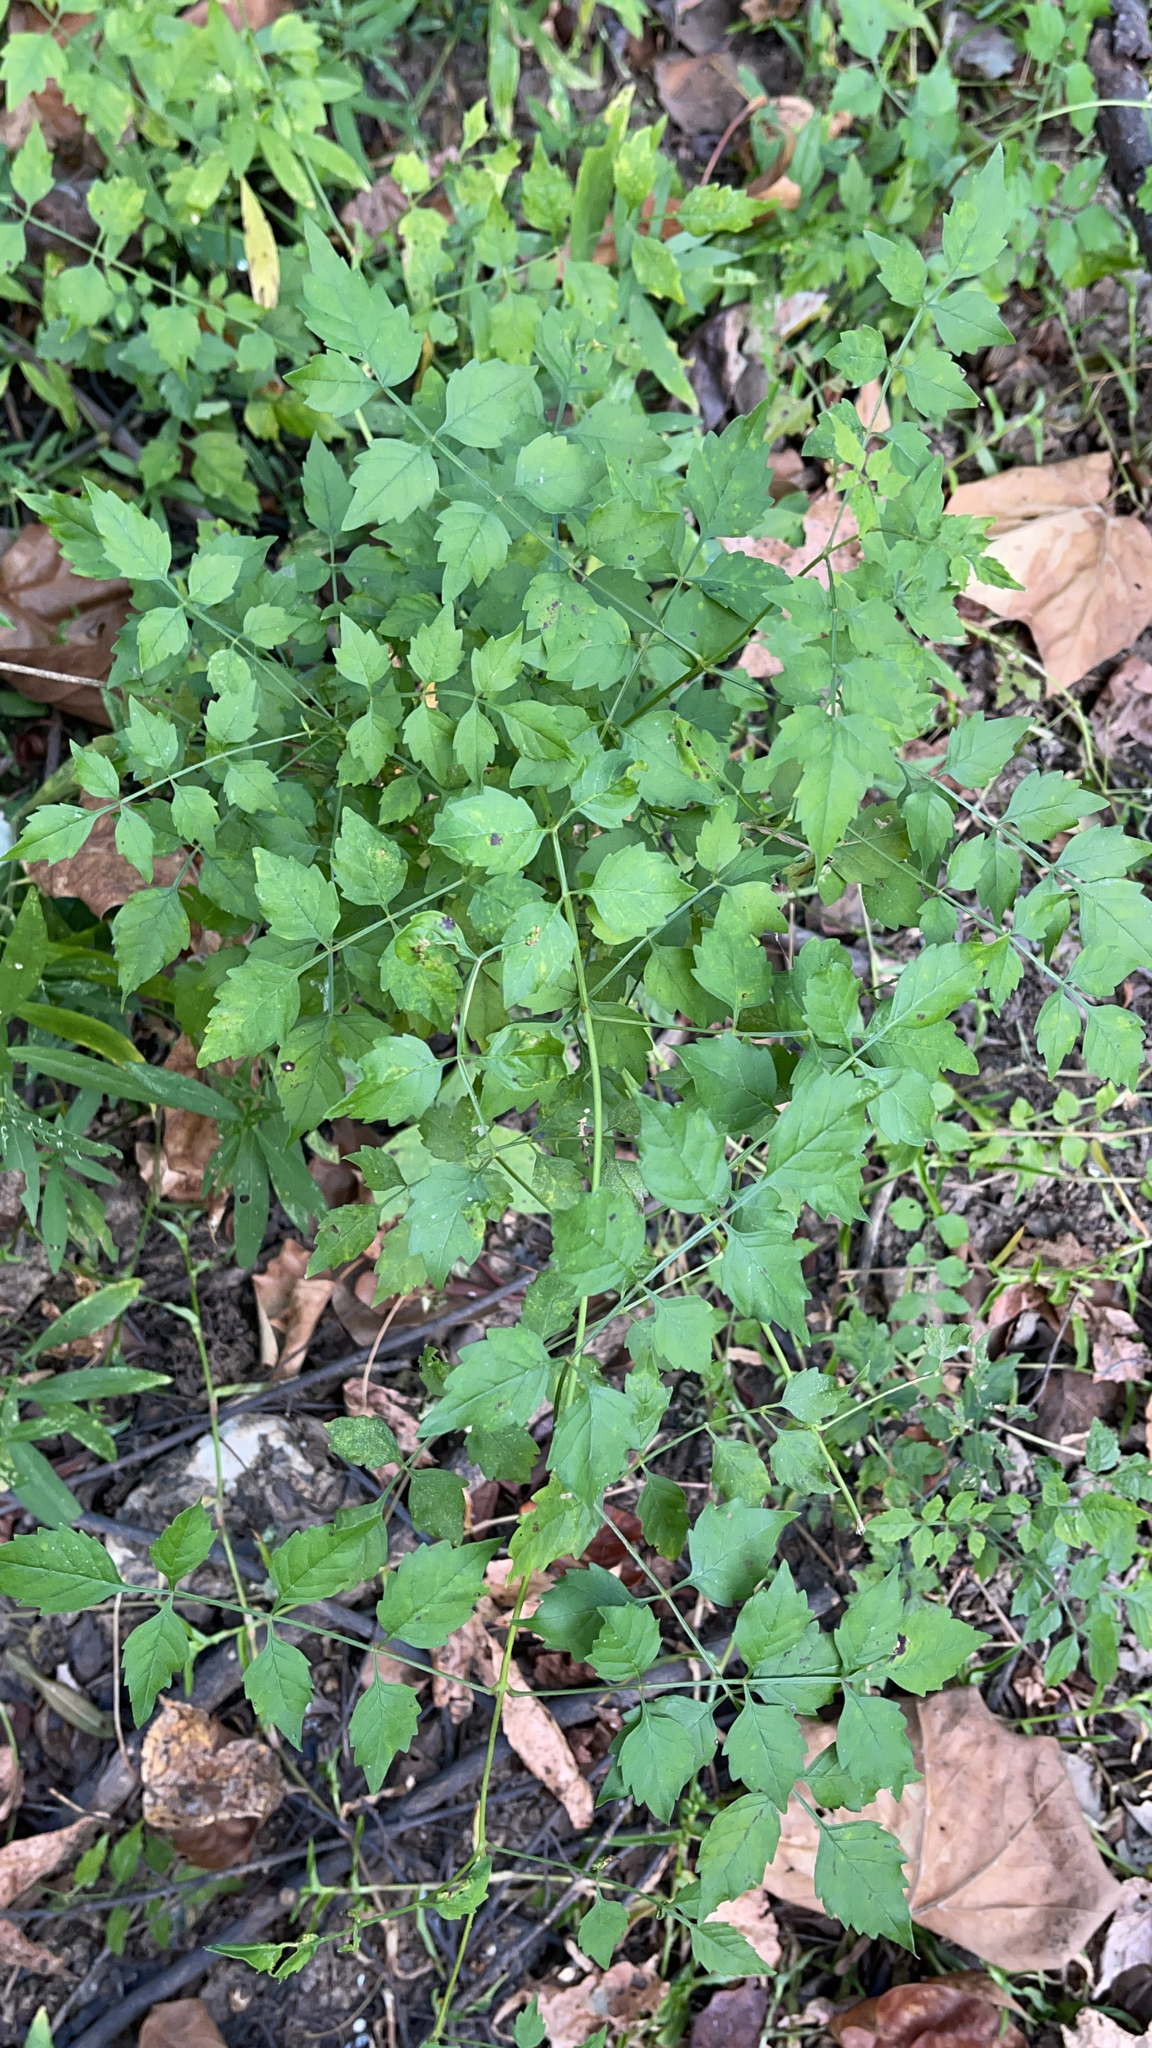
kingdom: Plantae
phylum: Tracheophyta
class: Magnoliopsida
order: Lamiales
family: Bignoniaceae
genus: Campsis
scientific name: Campsis radicans
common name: Trumpet-creeper
